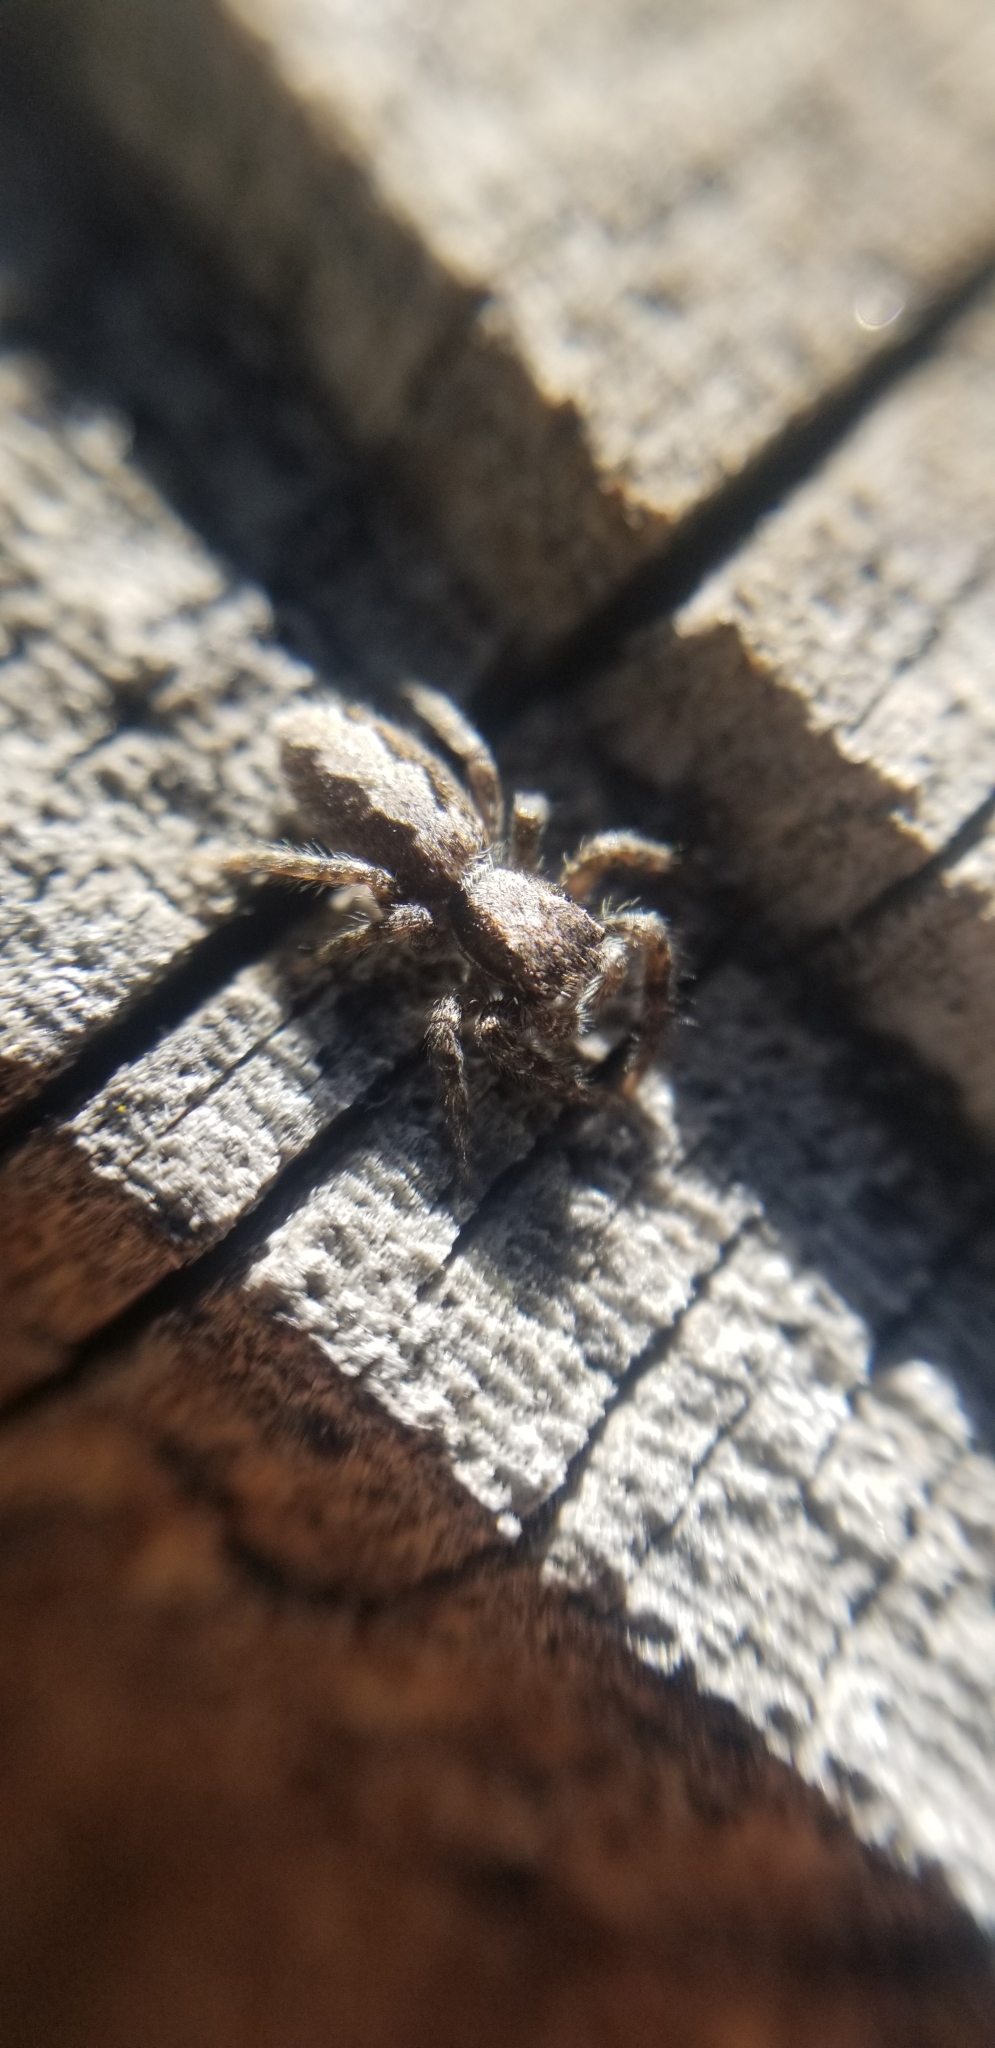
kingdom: Animalia
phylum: Arthropoda
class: Arachnida
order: Araneae
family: Salticidae
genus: Platycryptus
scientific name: Platycryptus californicus
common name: Jumping spiders
